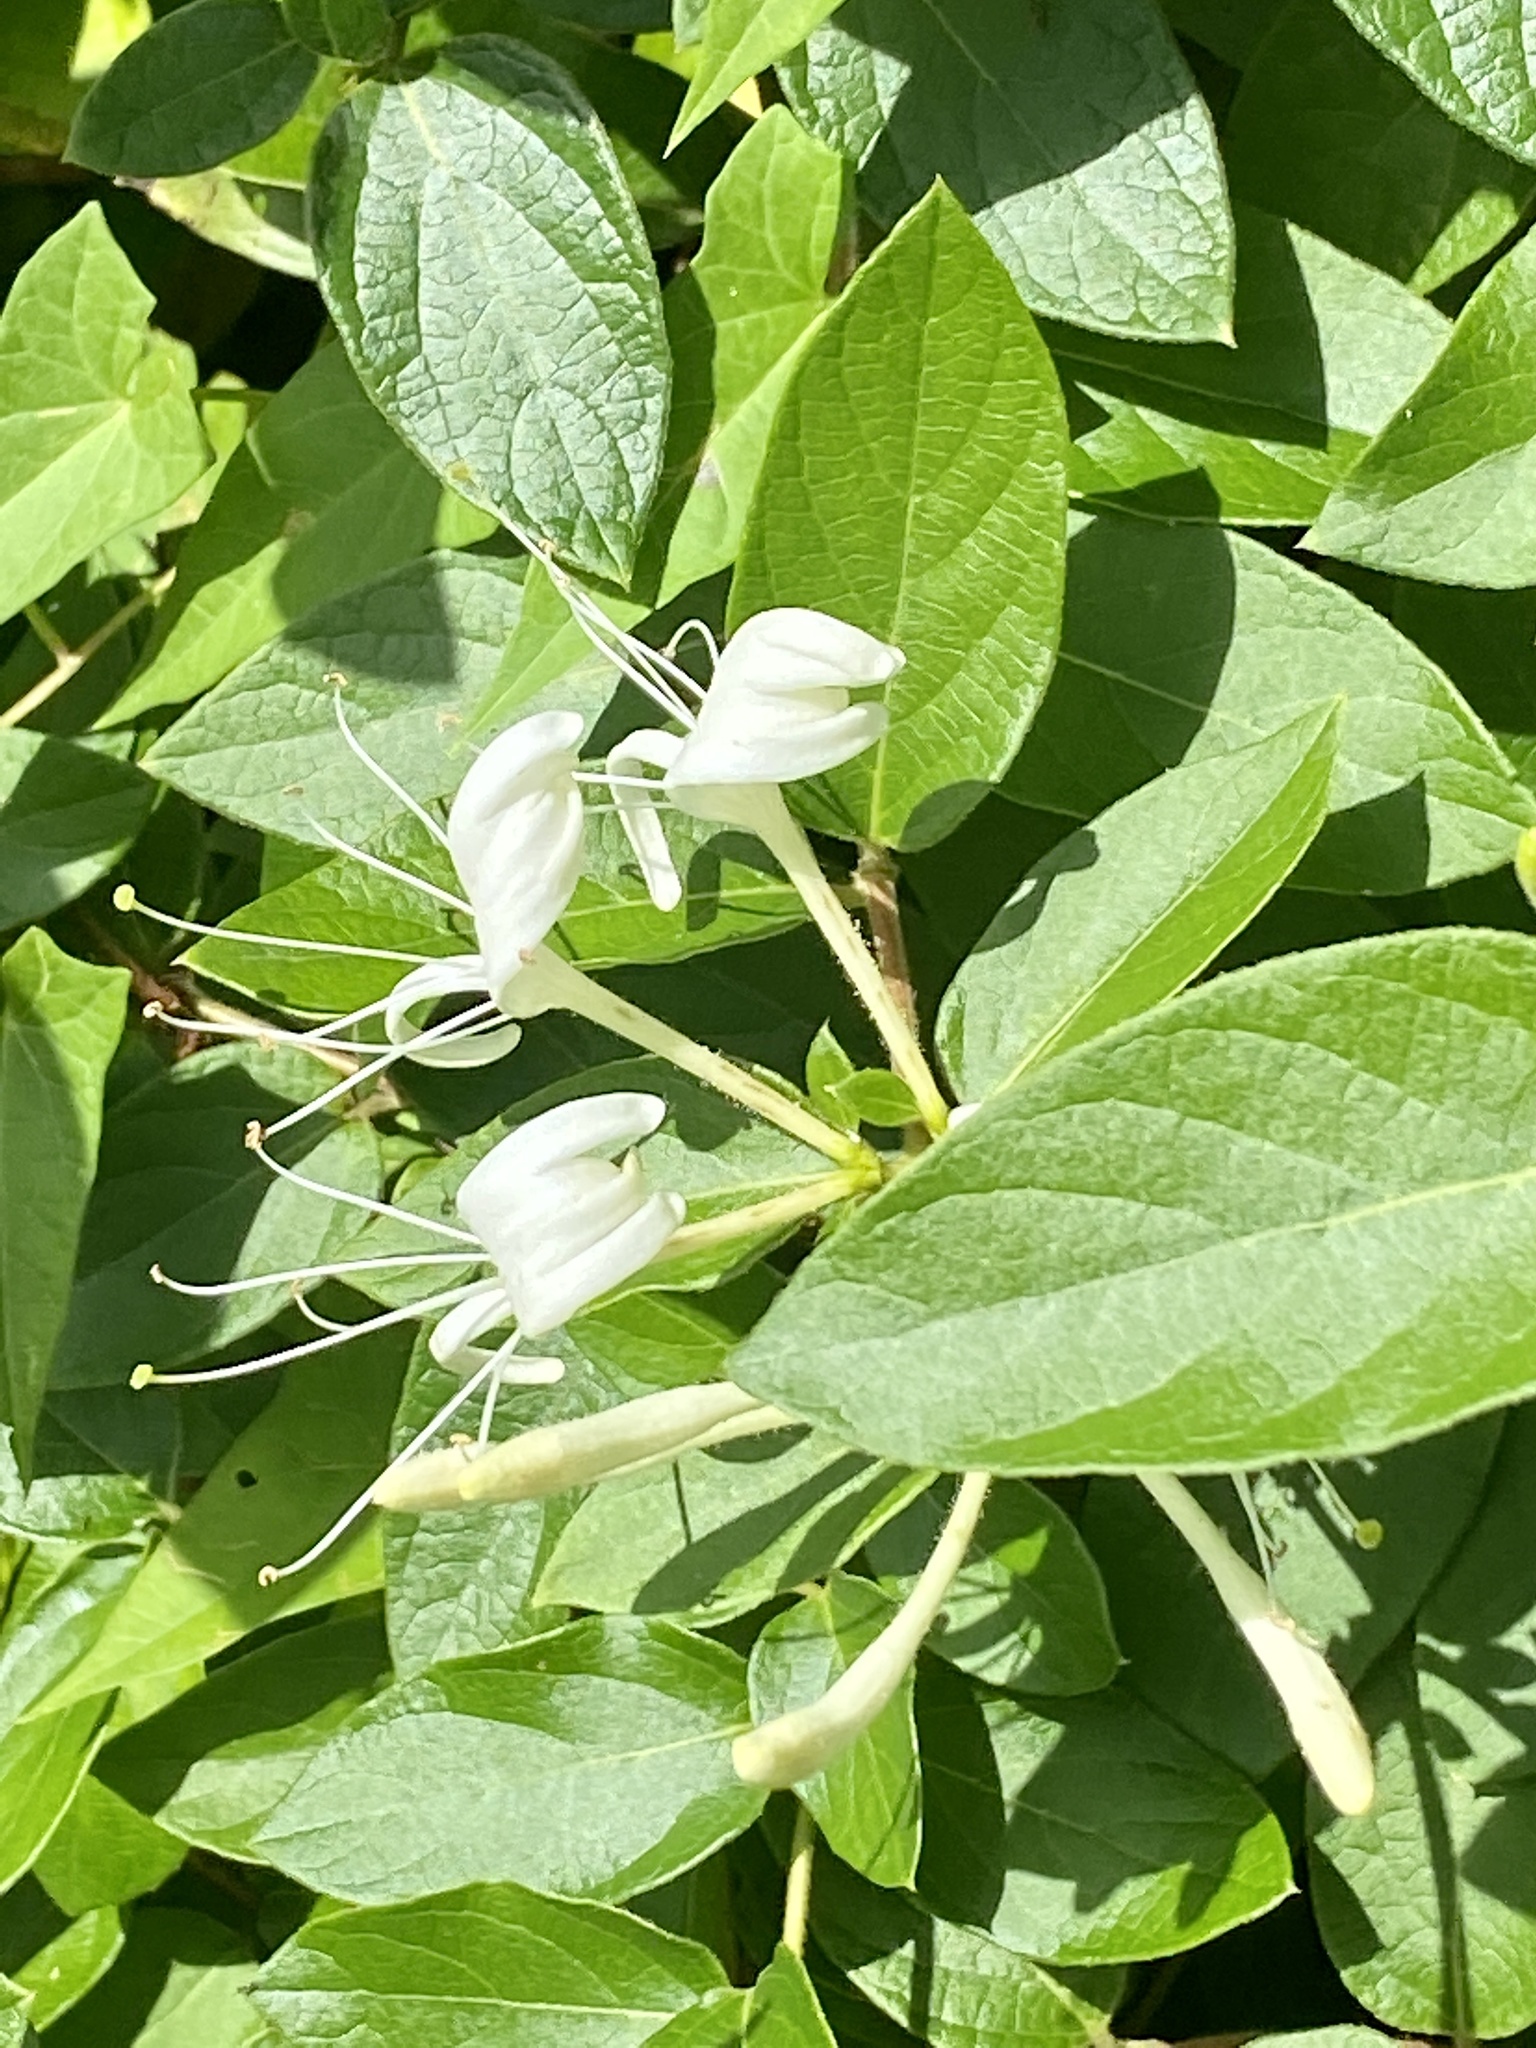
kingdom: Plantae
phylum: Tracheophyta
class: Magnoliopsida
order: Dipsacales
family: Caprifoliaceae
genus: Lonicera
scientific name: Lonicera japonica
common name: Japanese honeysuckle
